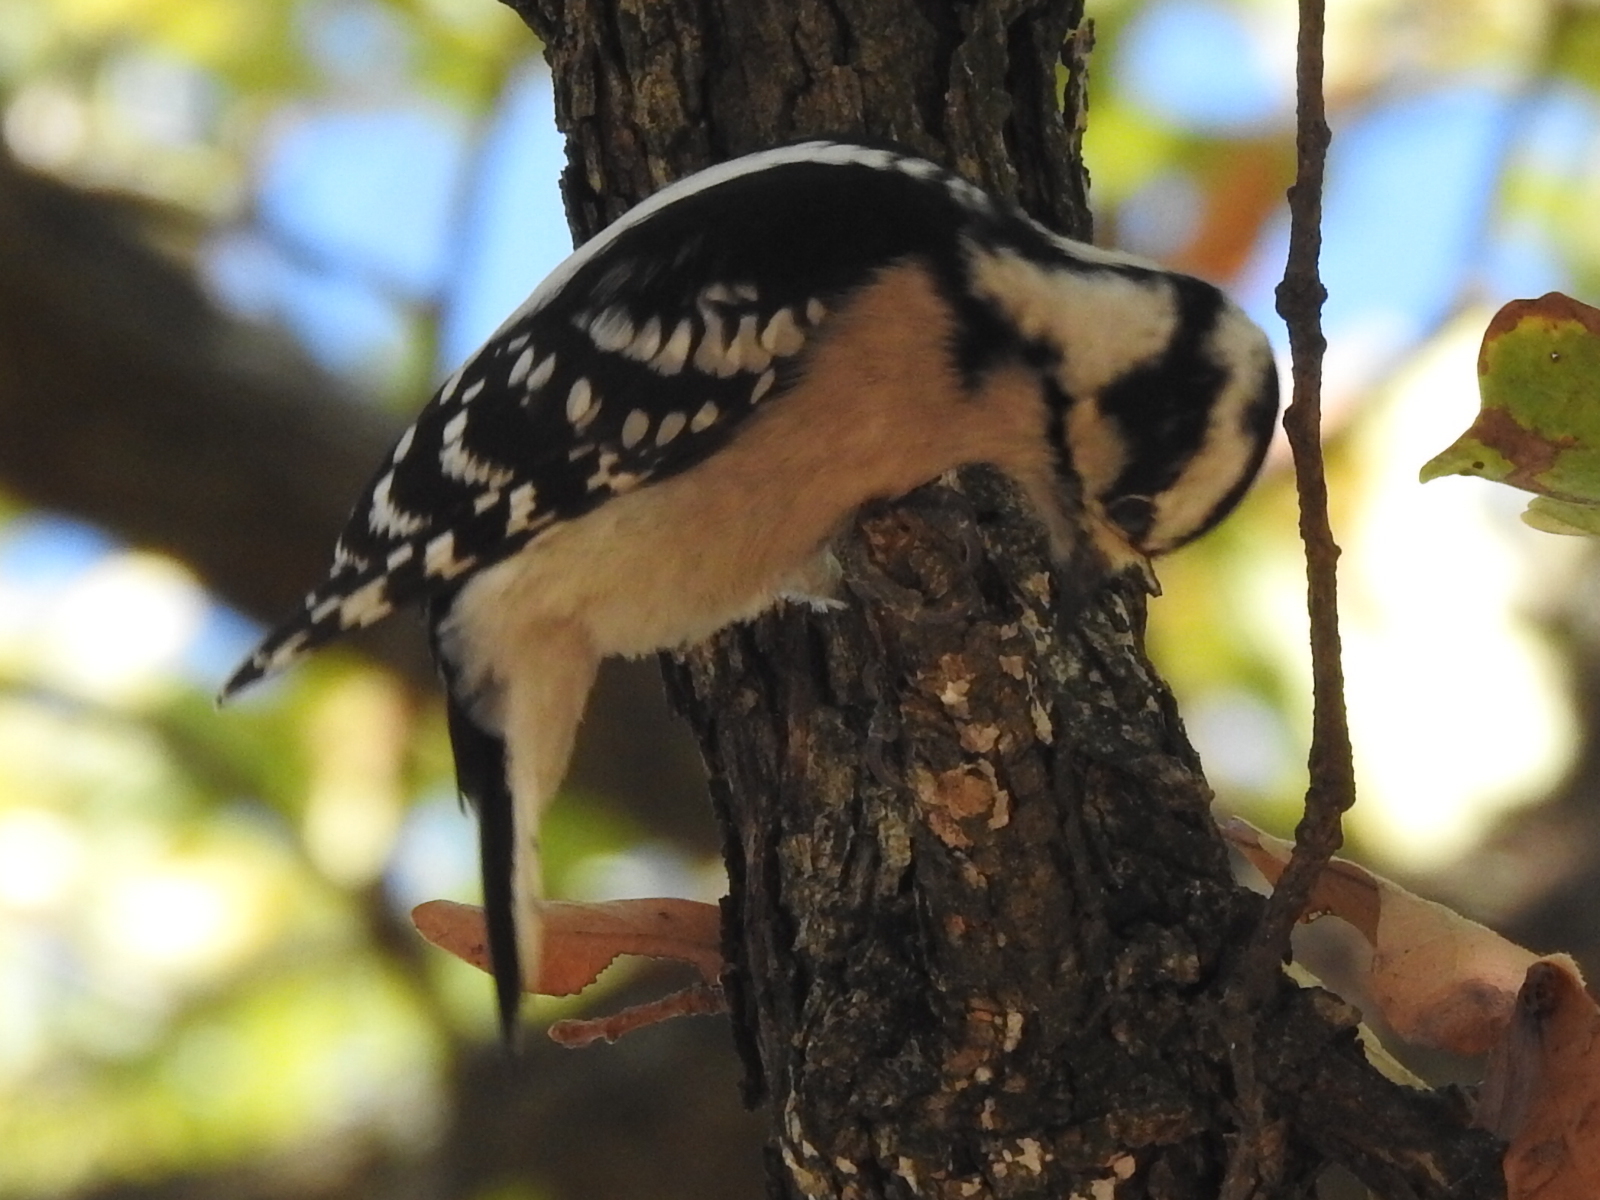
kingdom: Animalia
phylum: Chordata
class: Aves
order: Piciformes
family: Picidae
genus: Dryobates
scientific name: Dryobates pubescens
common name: Downy woodpecker
